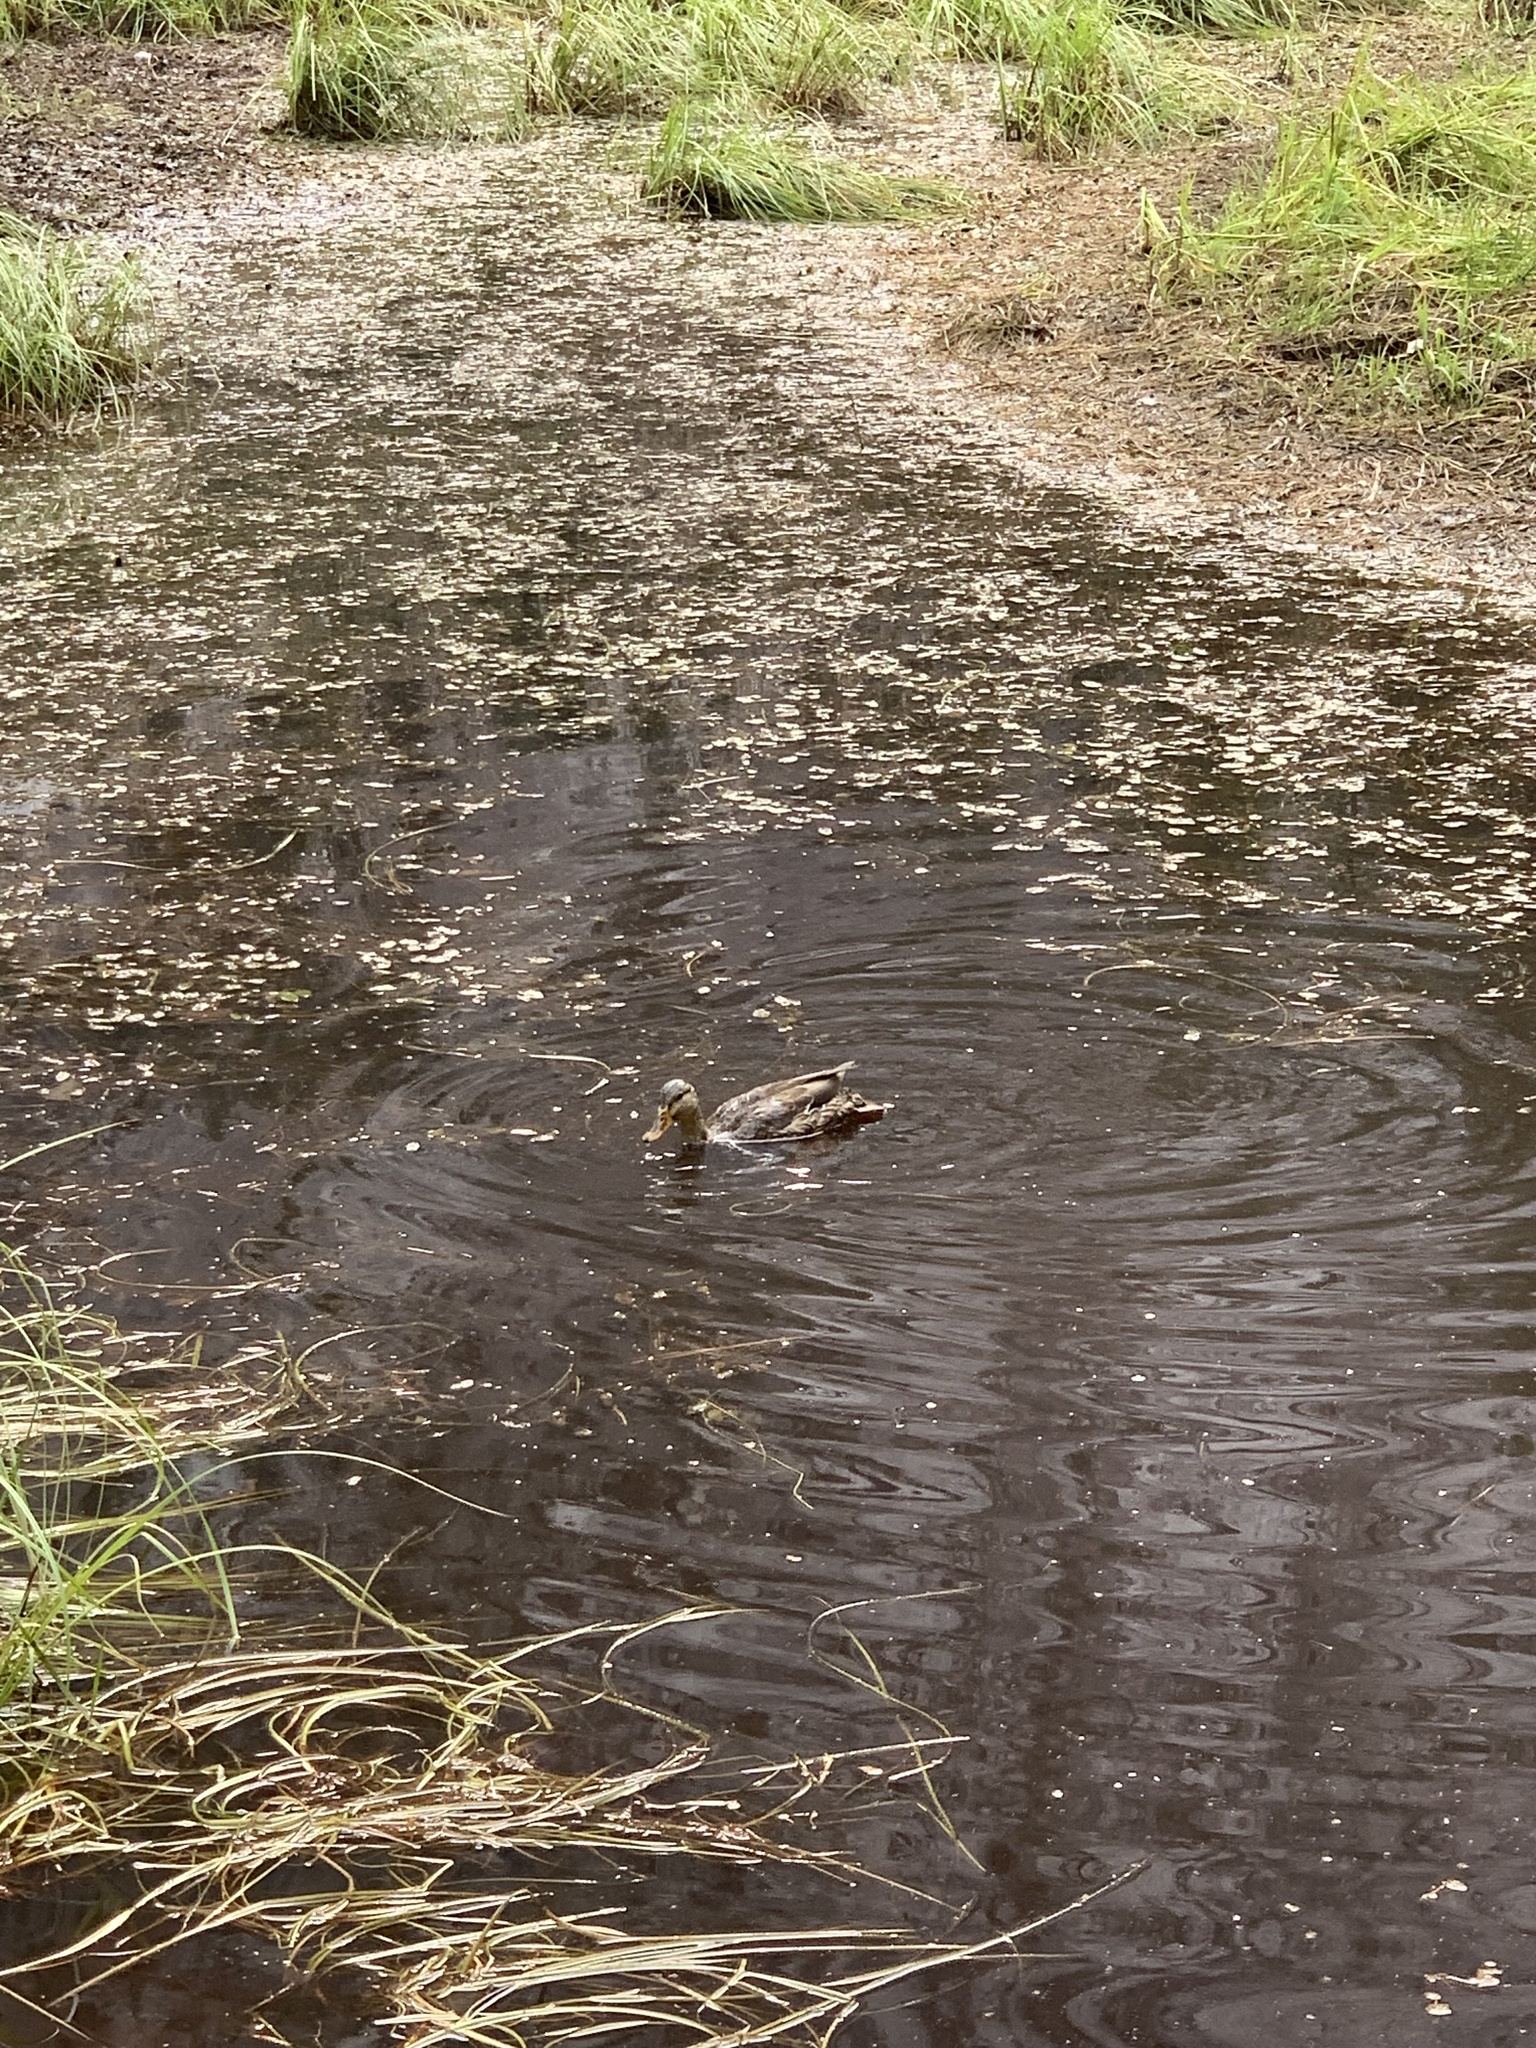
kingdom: Animalia
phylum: Chordata
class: Aves
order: Anseriformes
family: Anatidae
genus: Anas
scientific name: Anas platyrhynchos
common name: Mallard
